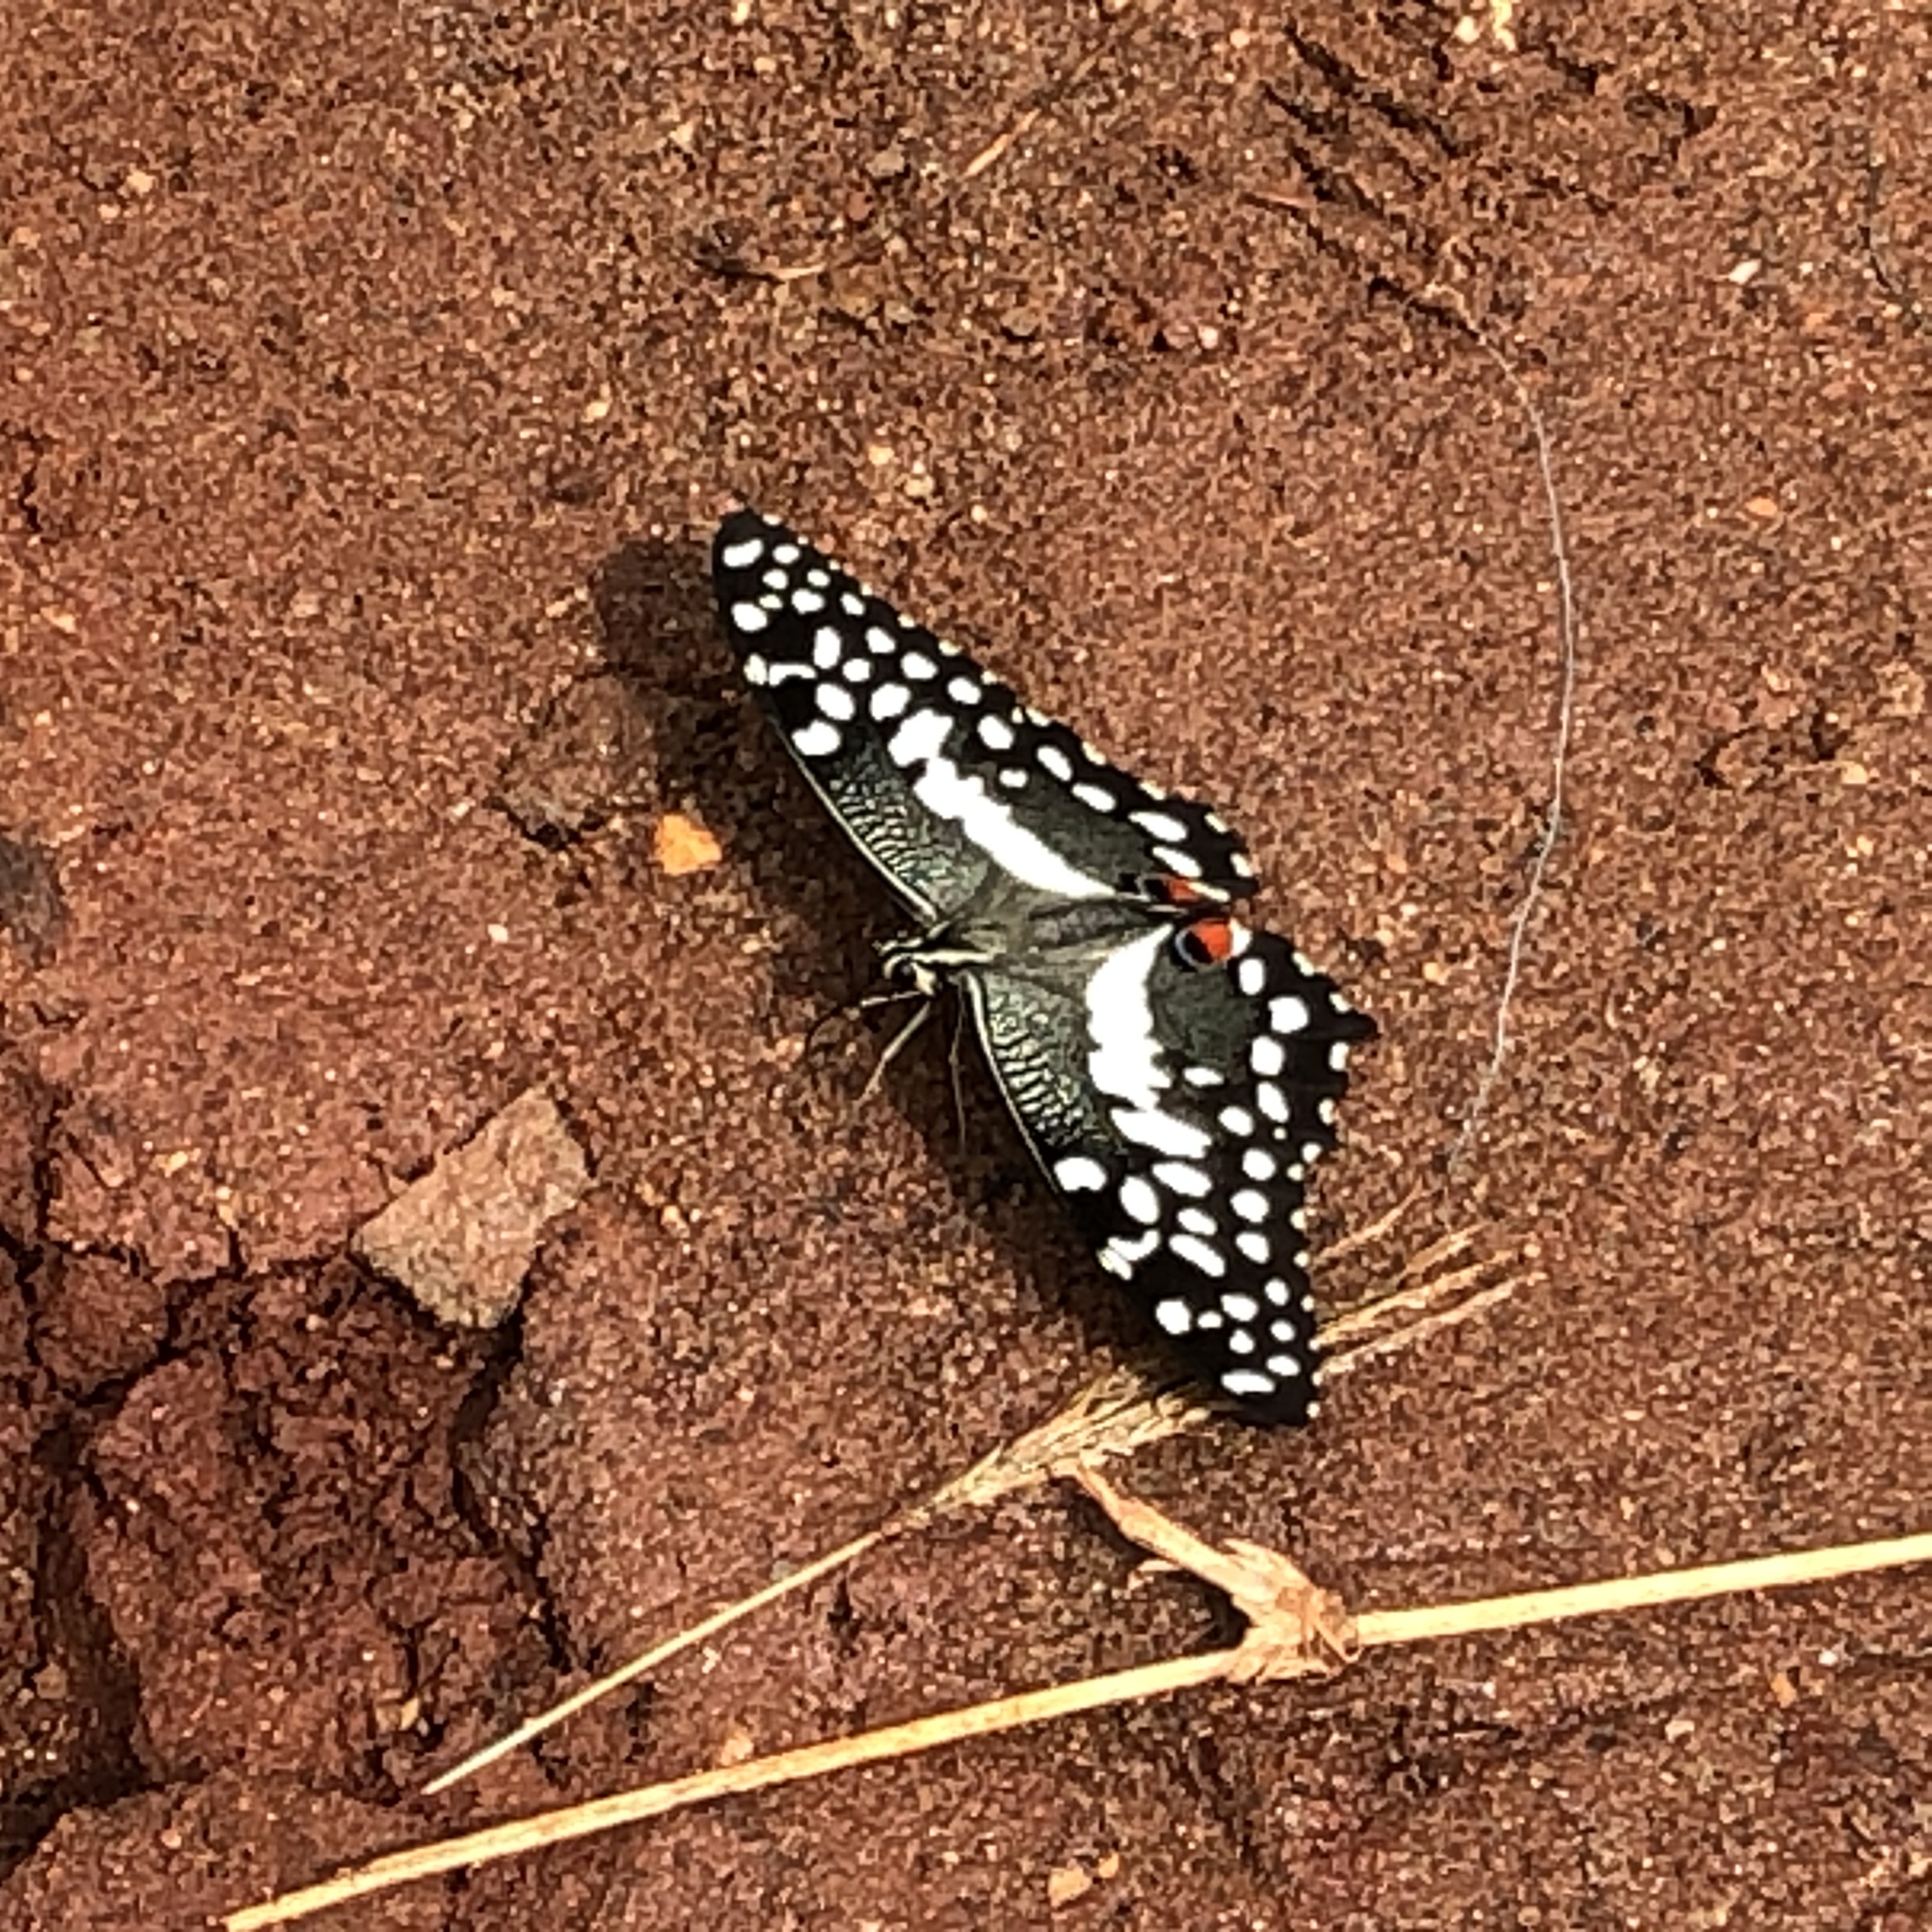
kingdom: Animalia
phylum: Arthropoda
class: Insecta
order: Lepidoptera
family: Papilionidae
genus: Papilio
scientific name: Papilio demodocus
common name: Christmas butterfly
